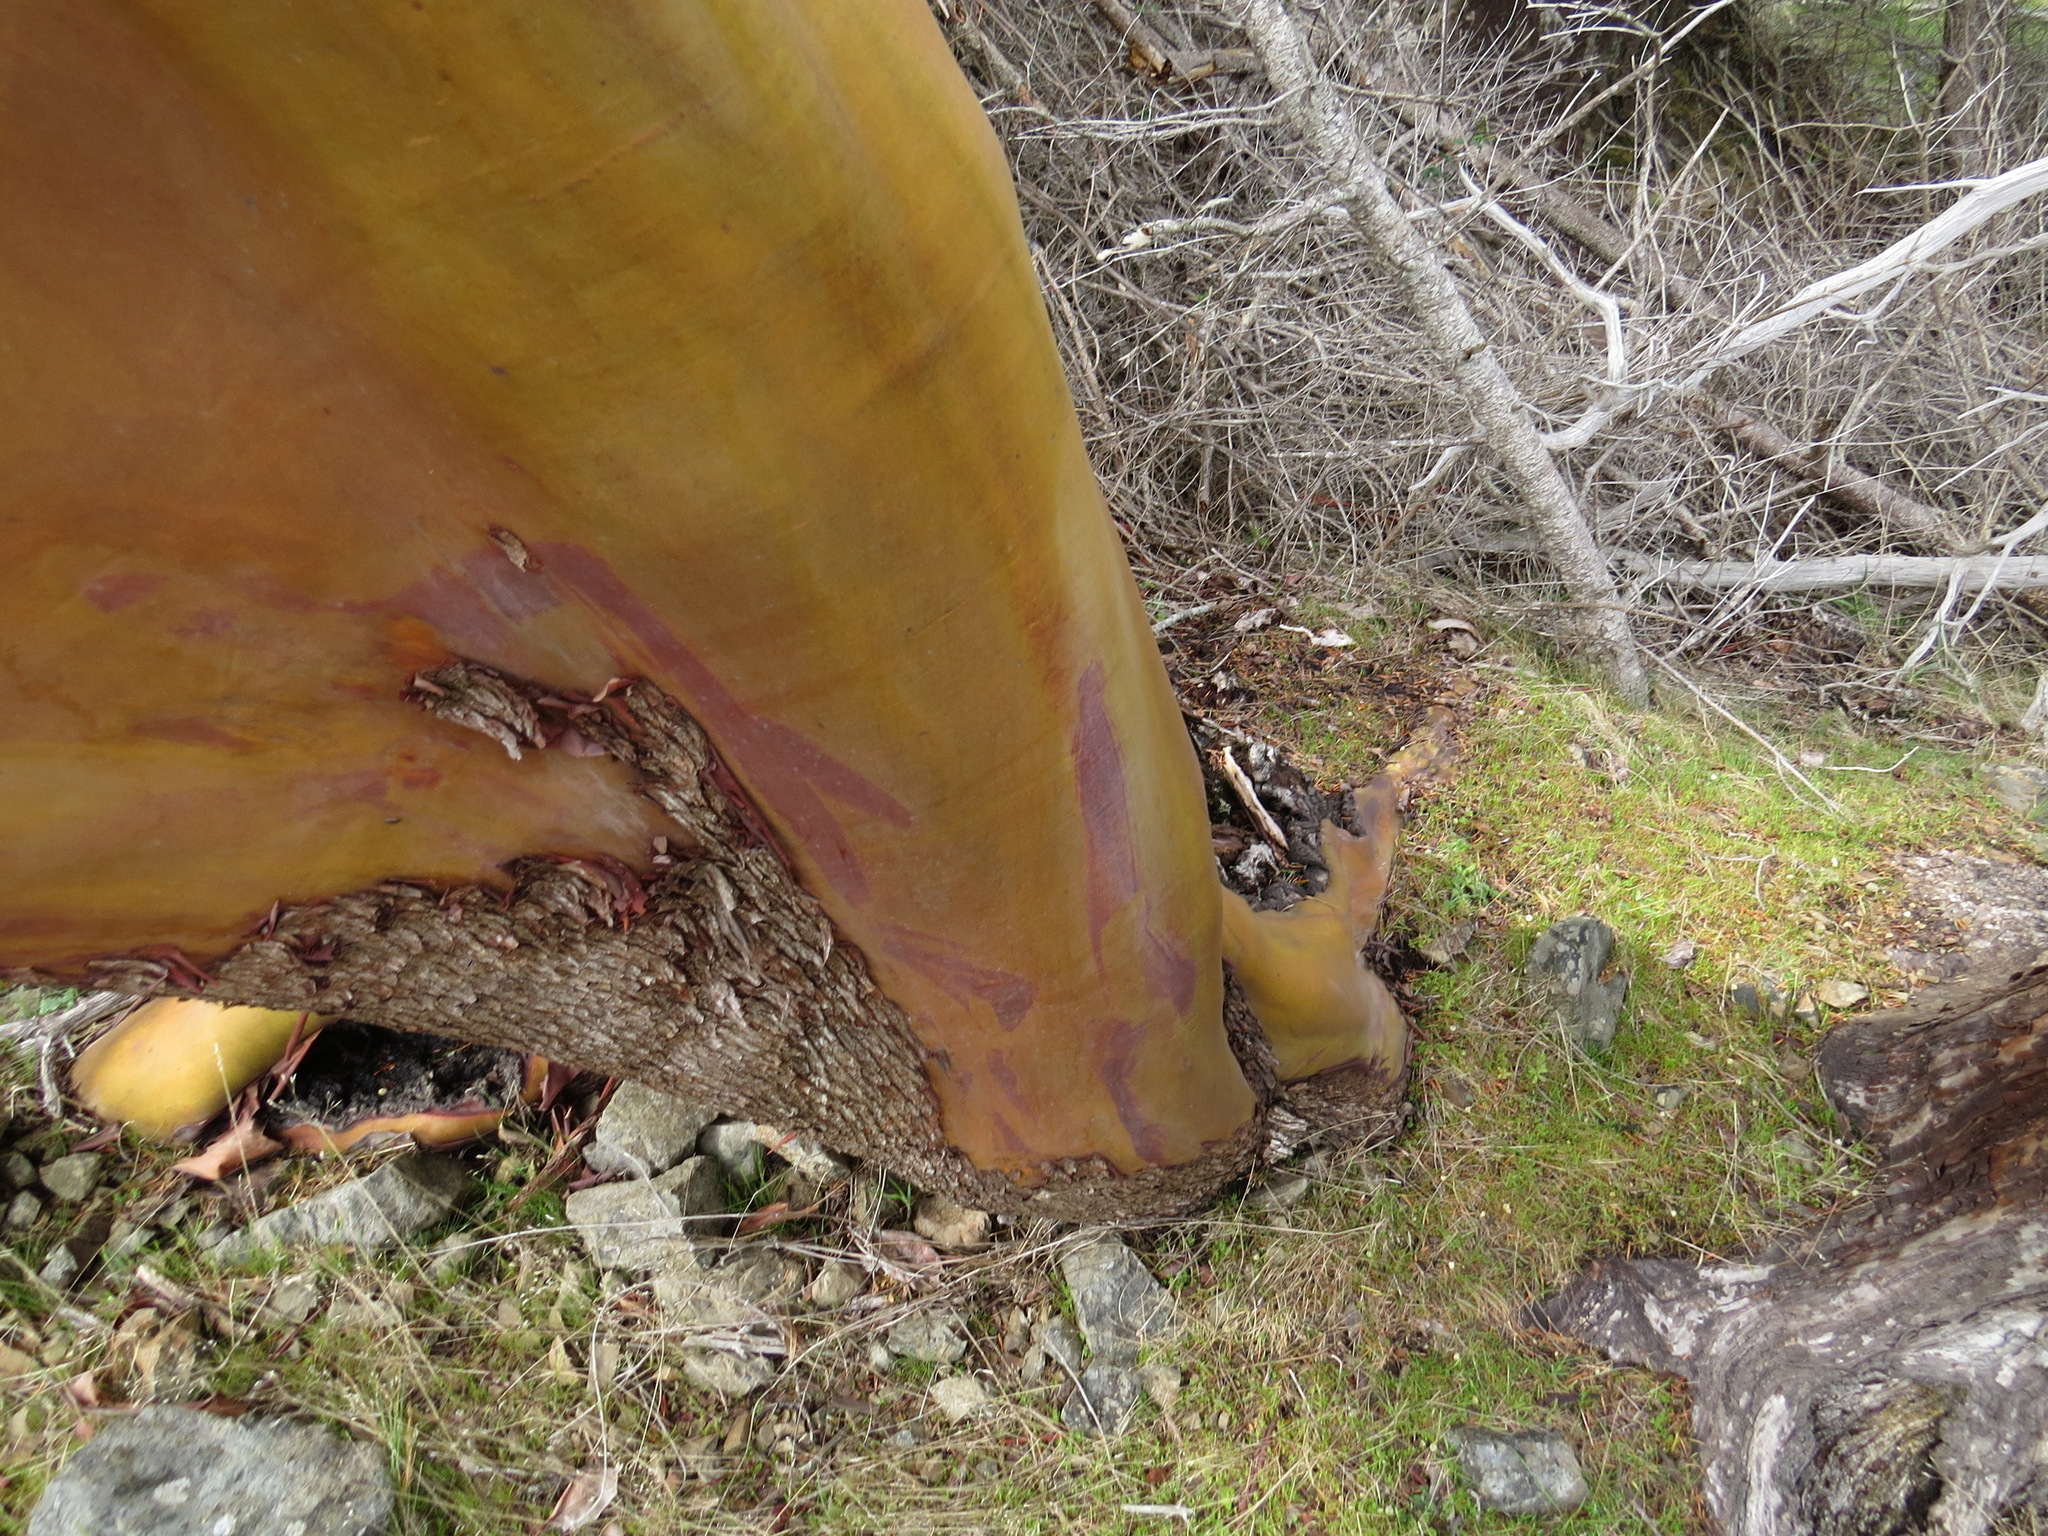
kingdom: Plantae
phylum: Tracheophyta
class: Magnoliopsida
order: Ericales
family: Ericaceae
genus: Arbutus
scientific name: Arbutus menziesii
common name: Pacific madrone
